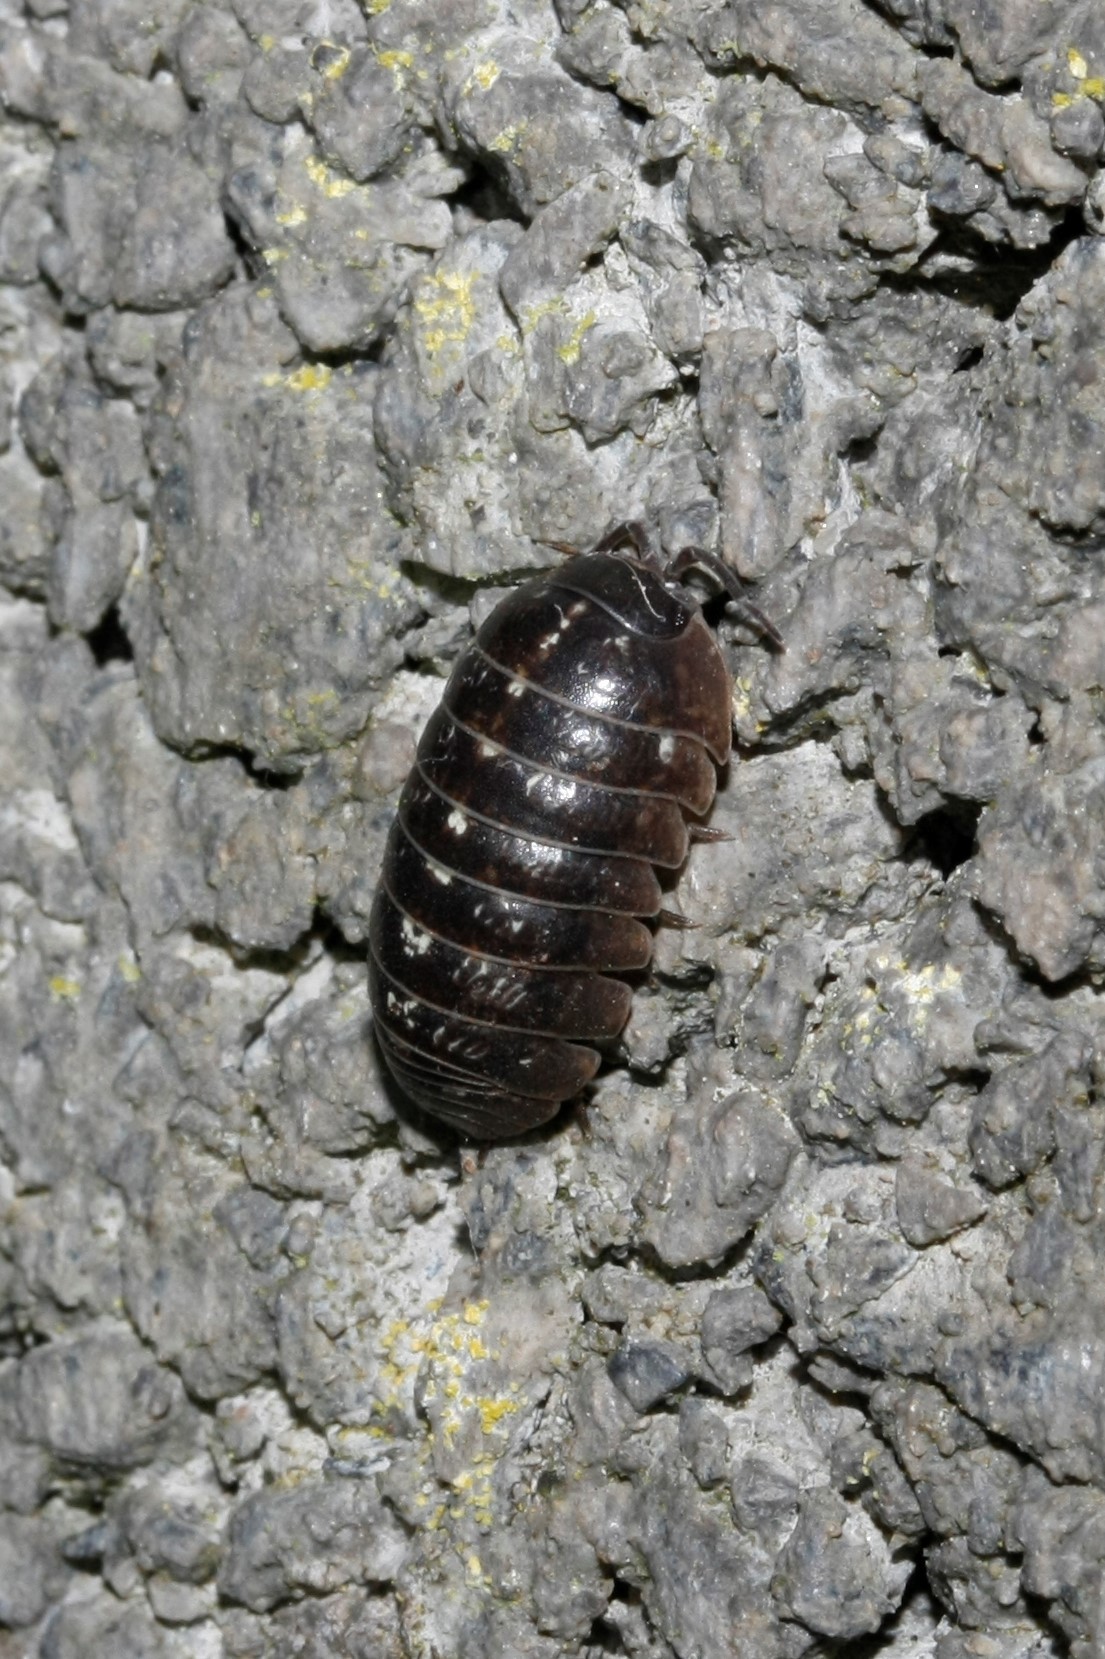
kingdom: Animalia
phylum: Arthropoda
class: Malacostraca
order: Isopoda
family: Armadillidiidae
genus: Armadillidium
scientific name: Armadillidium vulgare
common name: Common pill woodlouse
